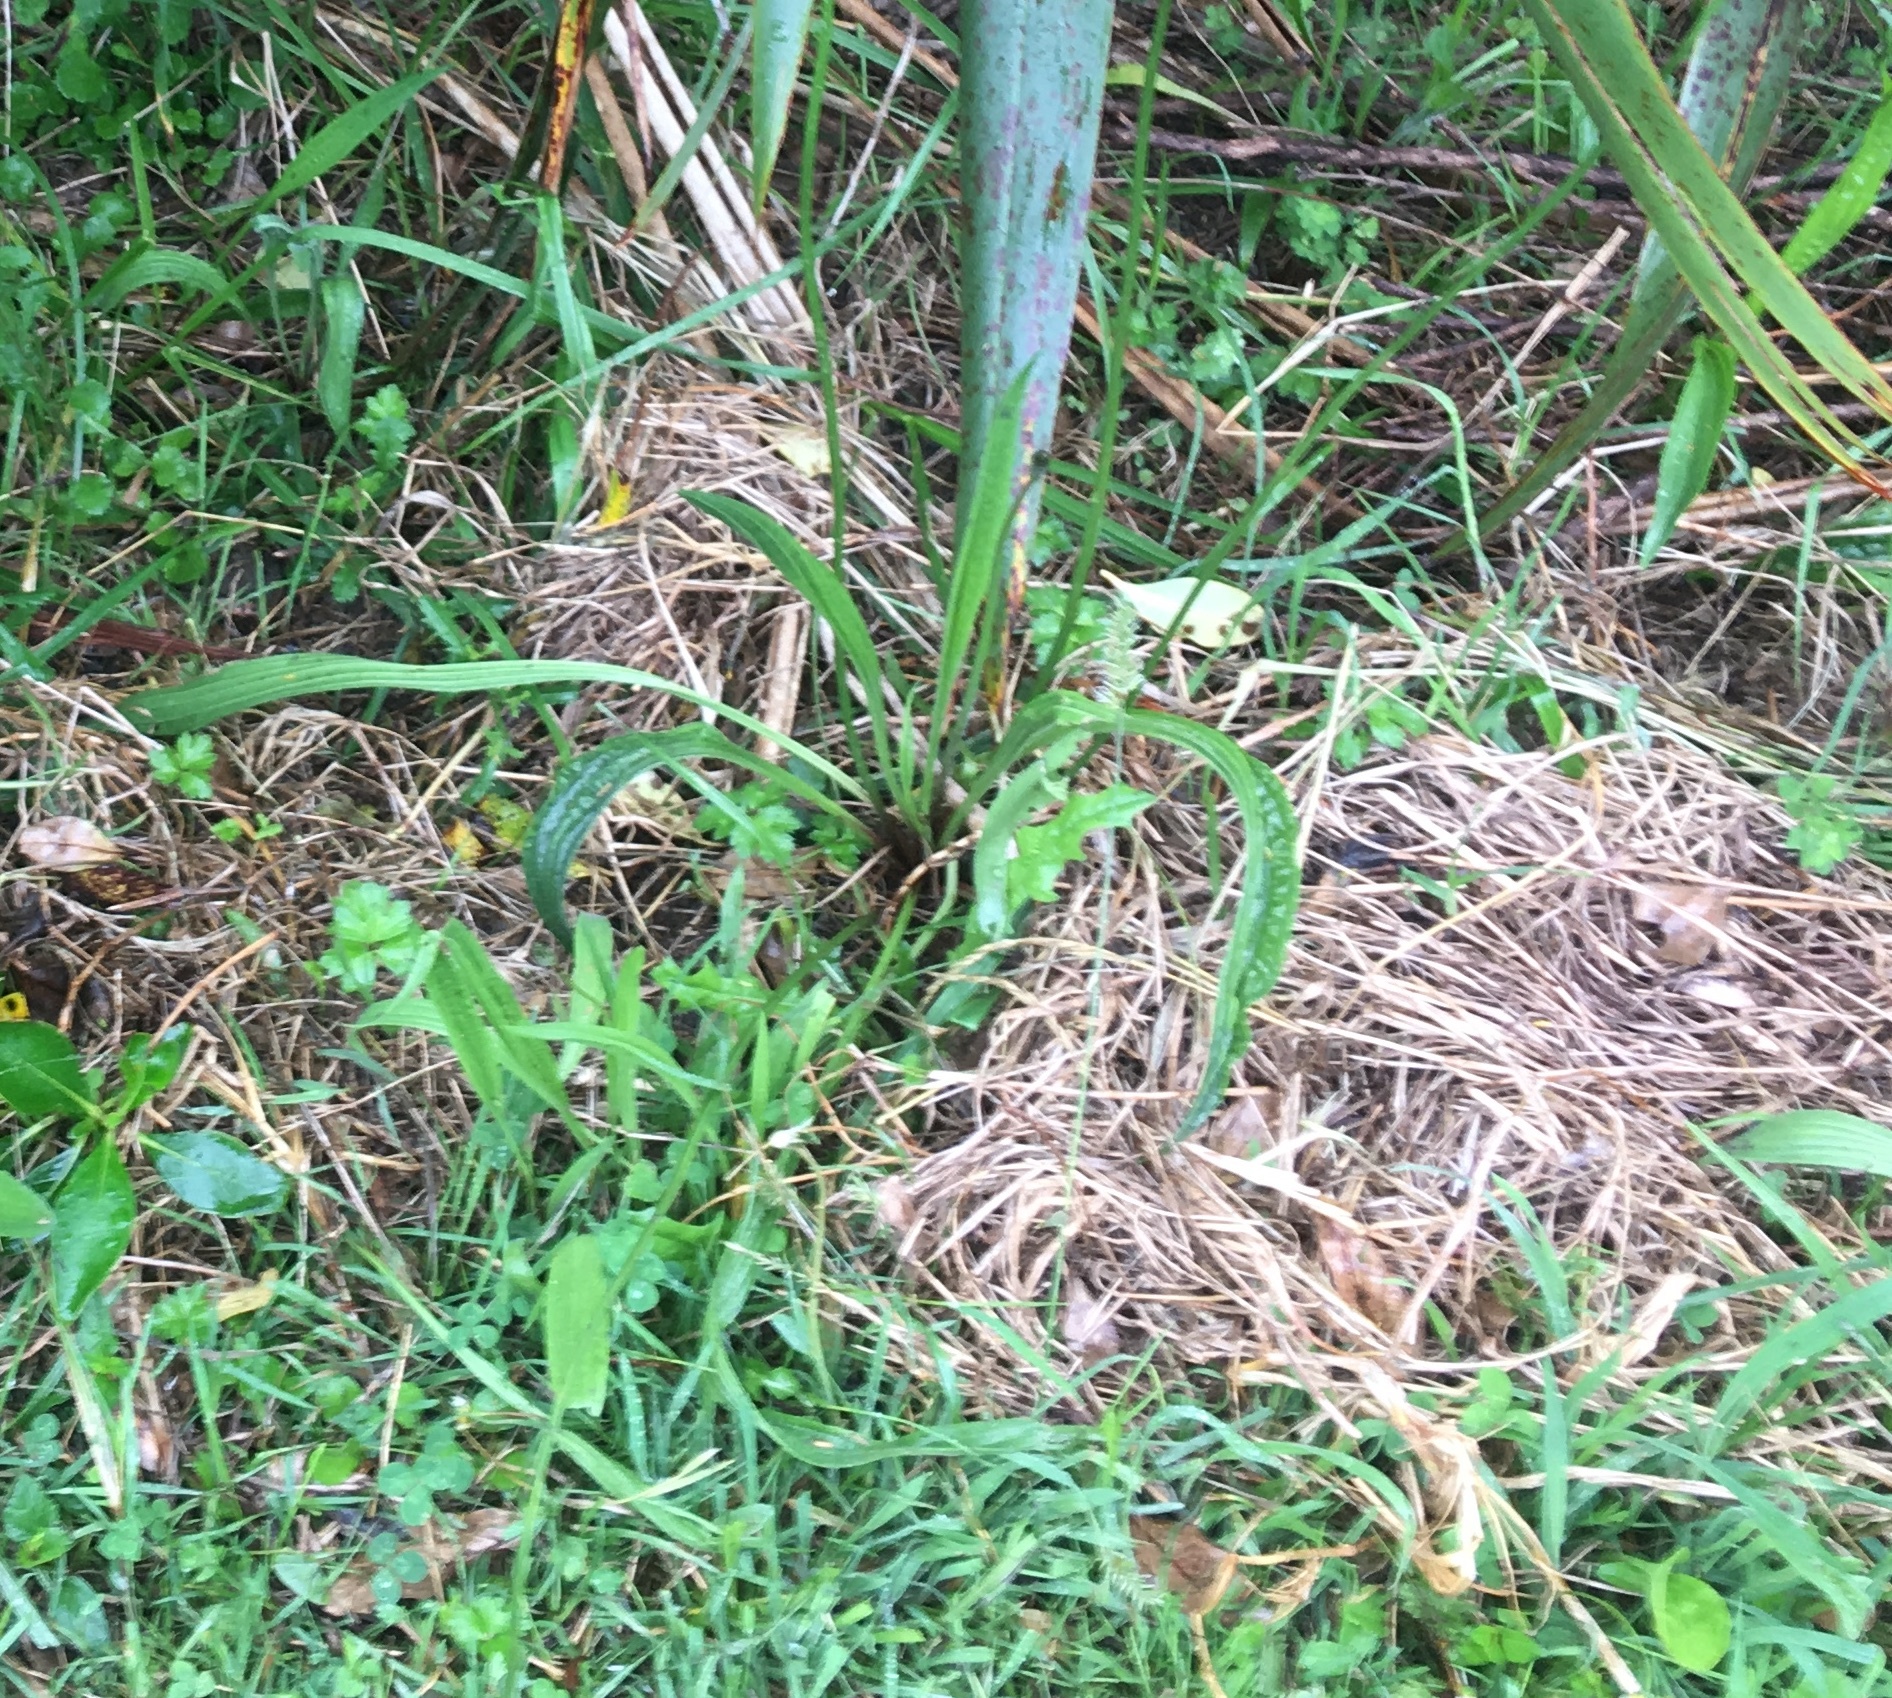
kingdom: Plantae
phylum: Tracheophyta
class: Magnoliopsida
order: Lamiales
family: Plantaginaceae
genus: Plantago
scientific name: Plantago lanceolata
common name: Ribwort plantain
